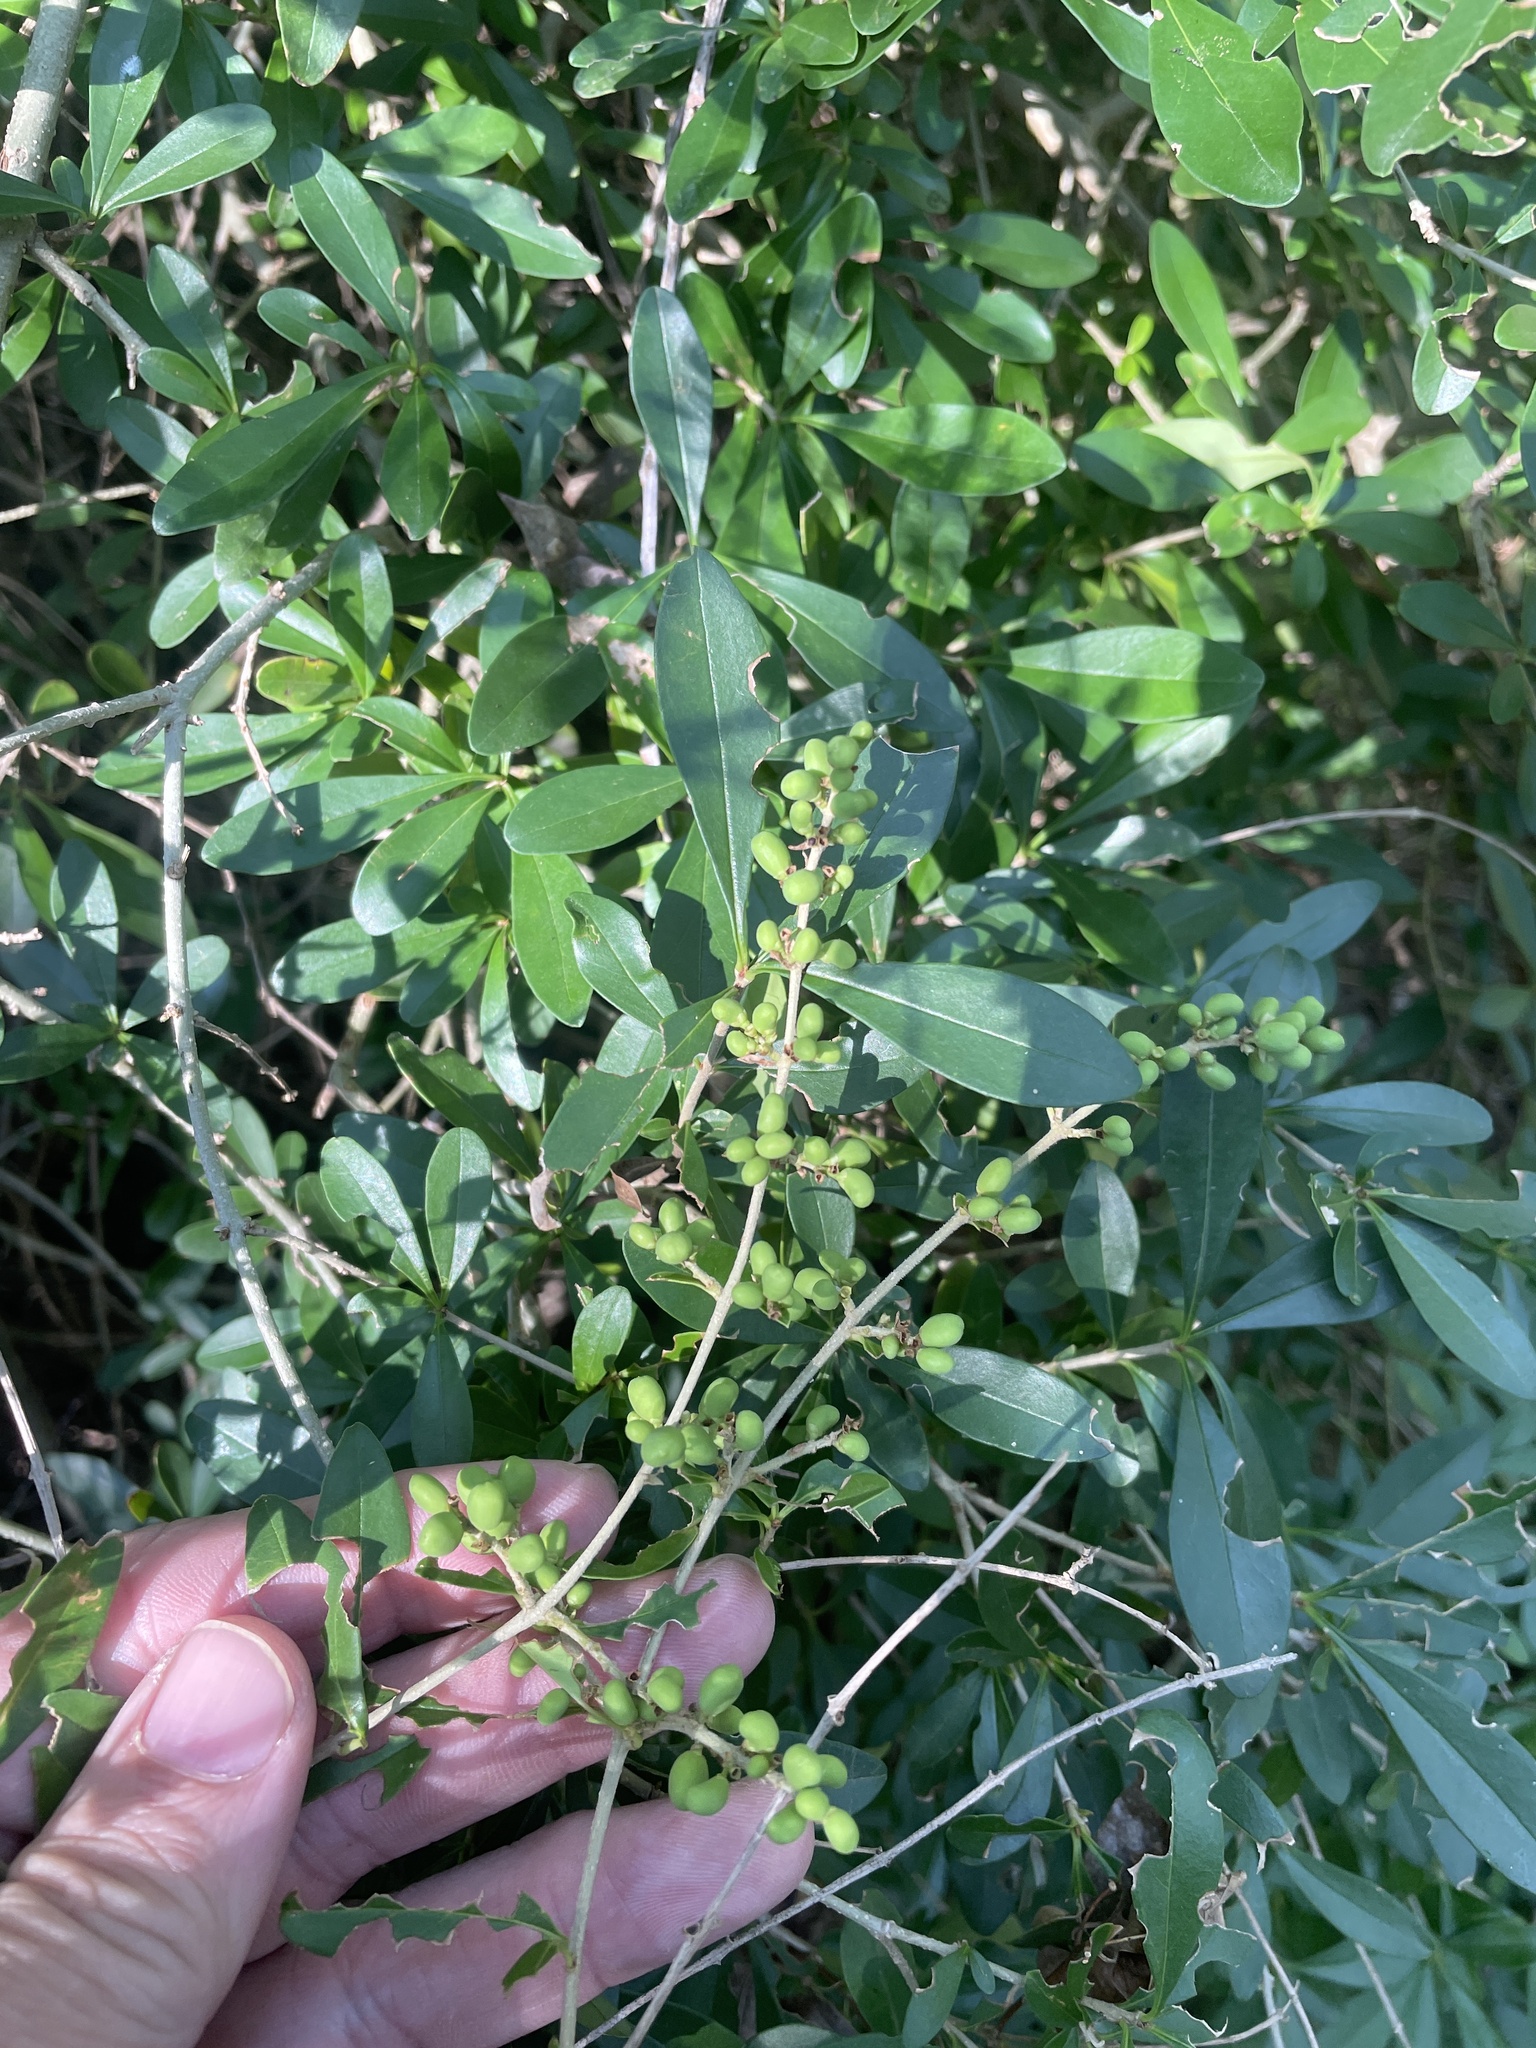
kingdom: Plantae
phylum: Tracheophyta
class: Magnoliopsida
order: Lamiales
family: Oleaceae
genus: Ligustrum
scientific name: Ligustrum quihoui
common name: Waxyleaf privet
